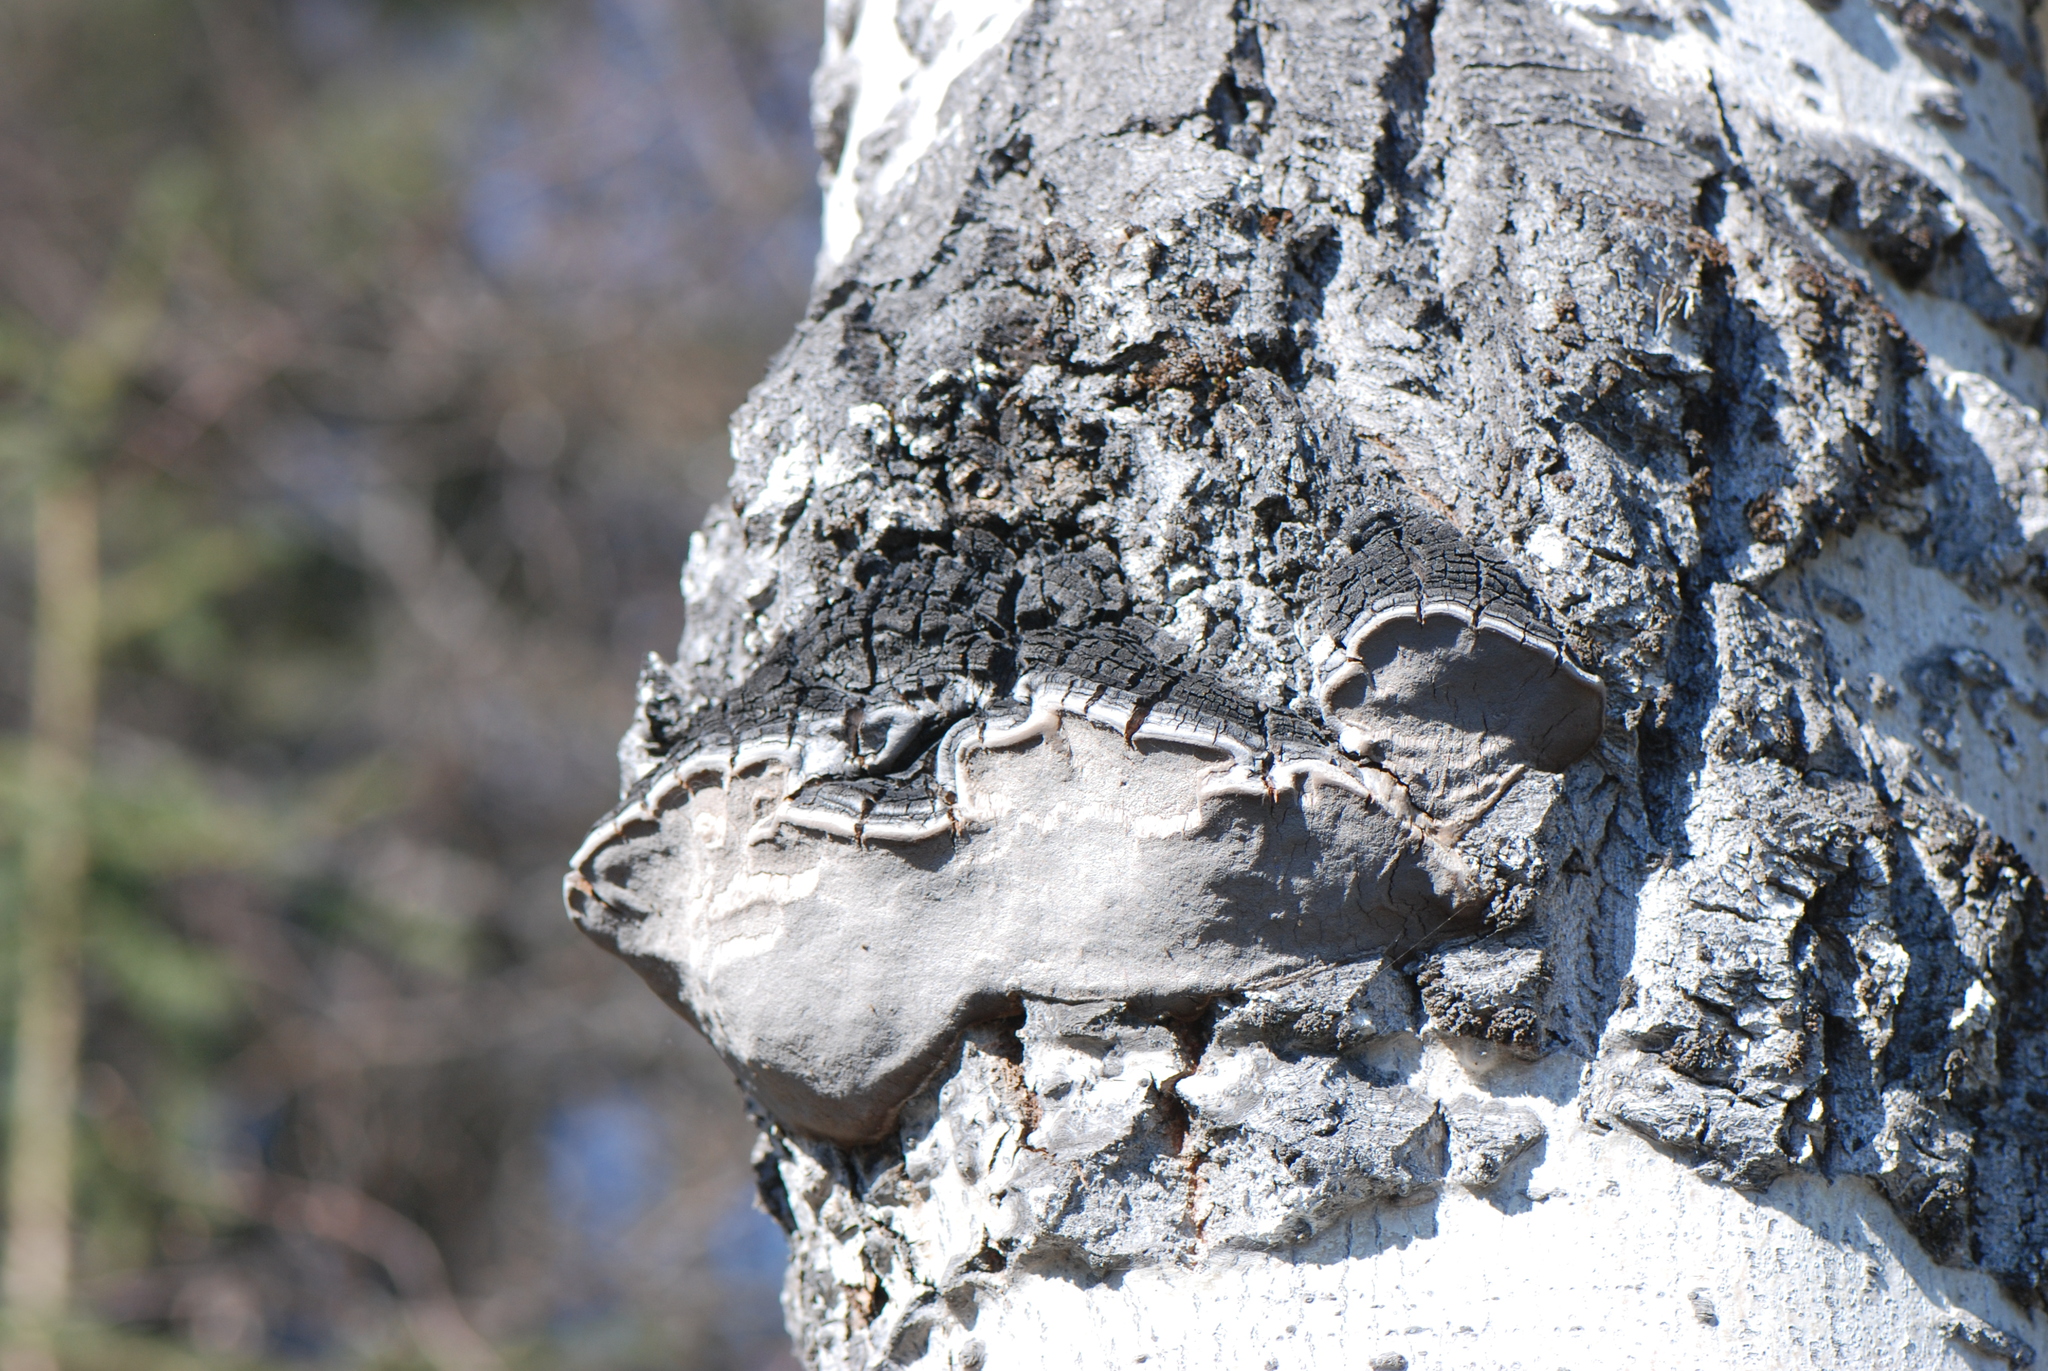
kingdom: Fungi
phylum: Basidiomycota
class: Agaricomycetes
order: Hymenochaetales
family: Hymenochaetaceae
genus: Phellinus
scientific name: Phellinus tremulae
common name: Aspen bracket
